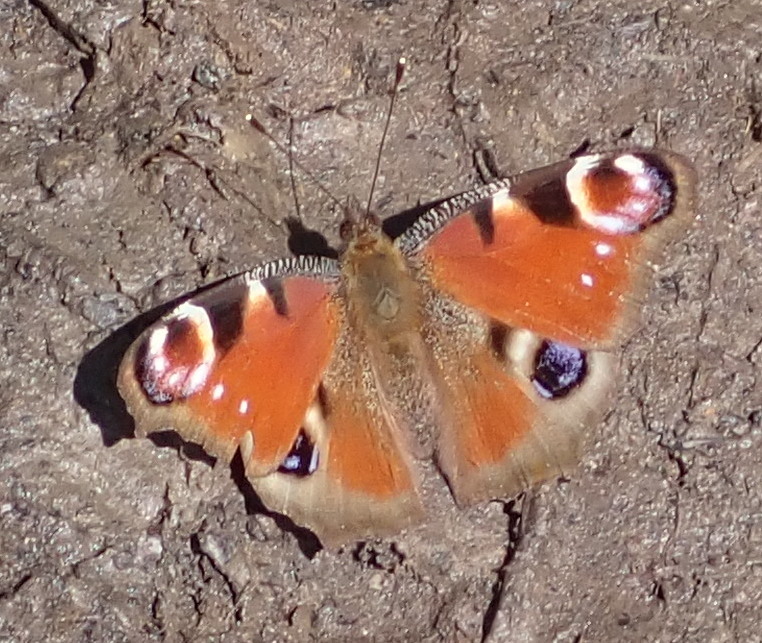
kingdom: Animalia
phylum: Arthropoda
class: Insecta
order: Lepidoptera
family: Nymphalidae
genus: Aglais
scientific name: Aglais io
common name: Peacock
